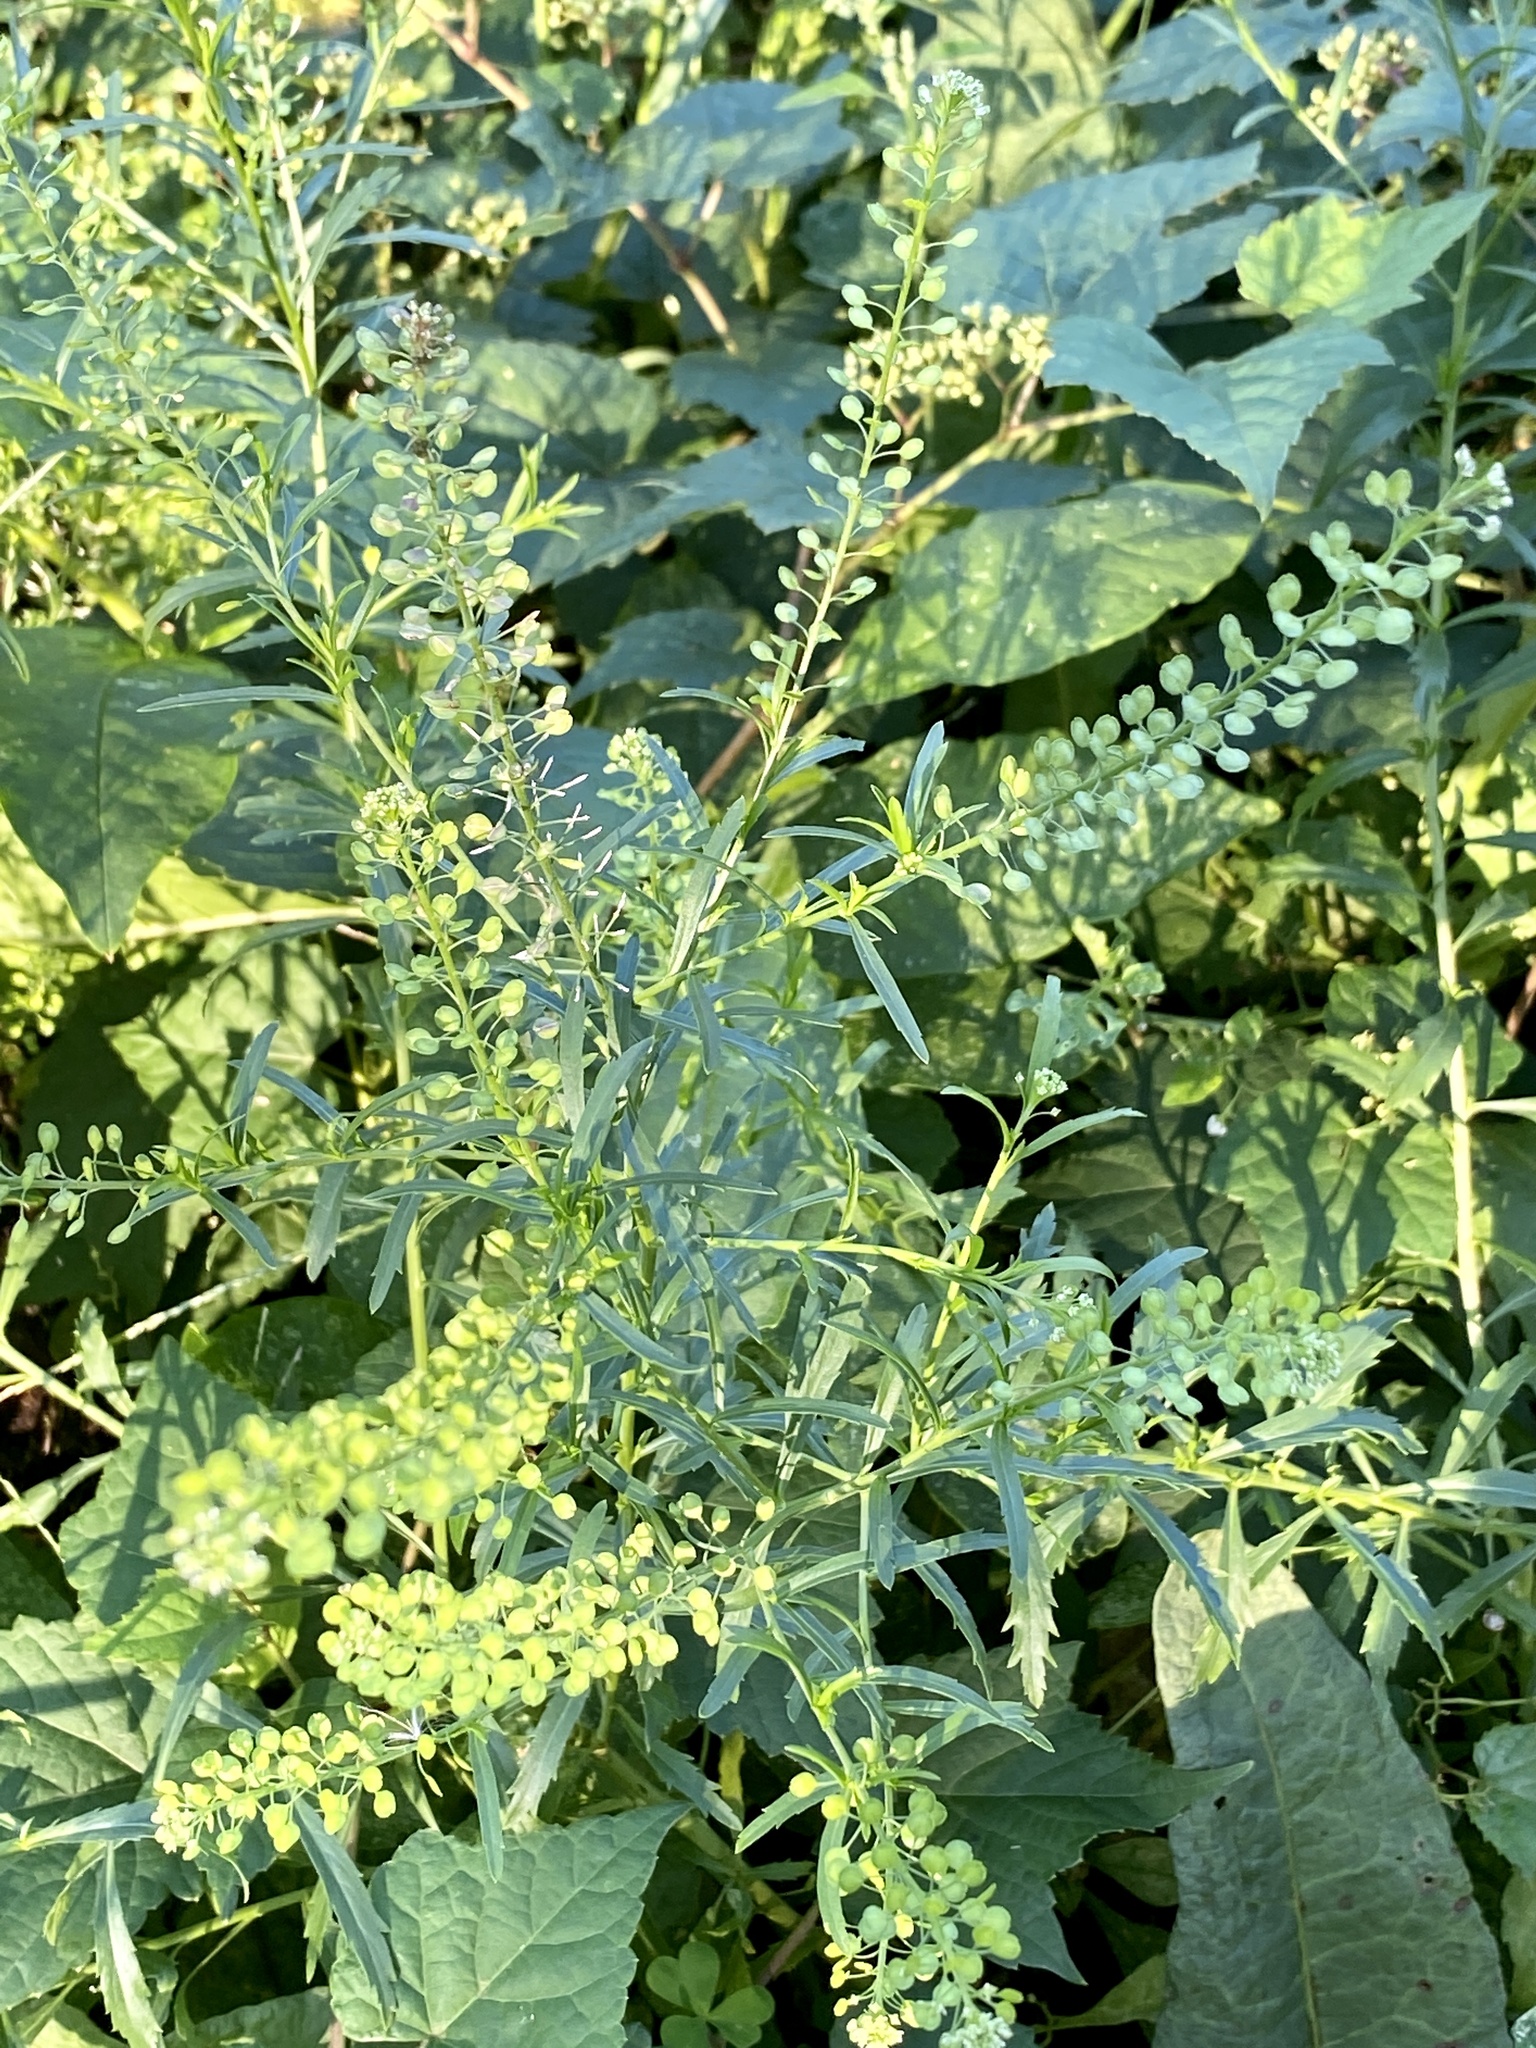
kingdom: Plantae
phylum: Tracheophyta
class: Magnoliopsida
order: Brassicales
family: Brassicaceae
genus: Lepidium
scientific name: Lepidium virginicum
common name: Least pepperwort
